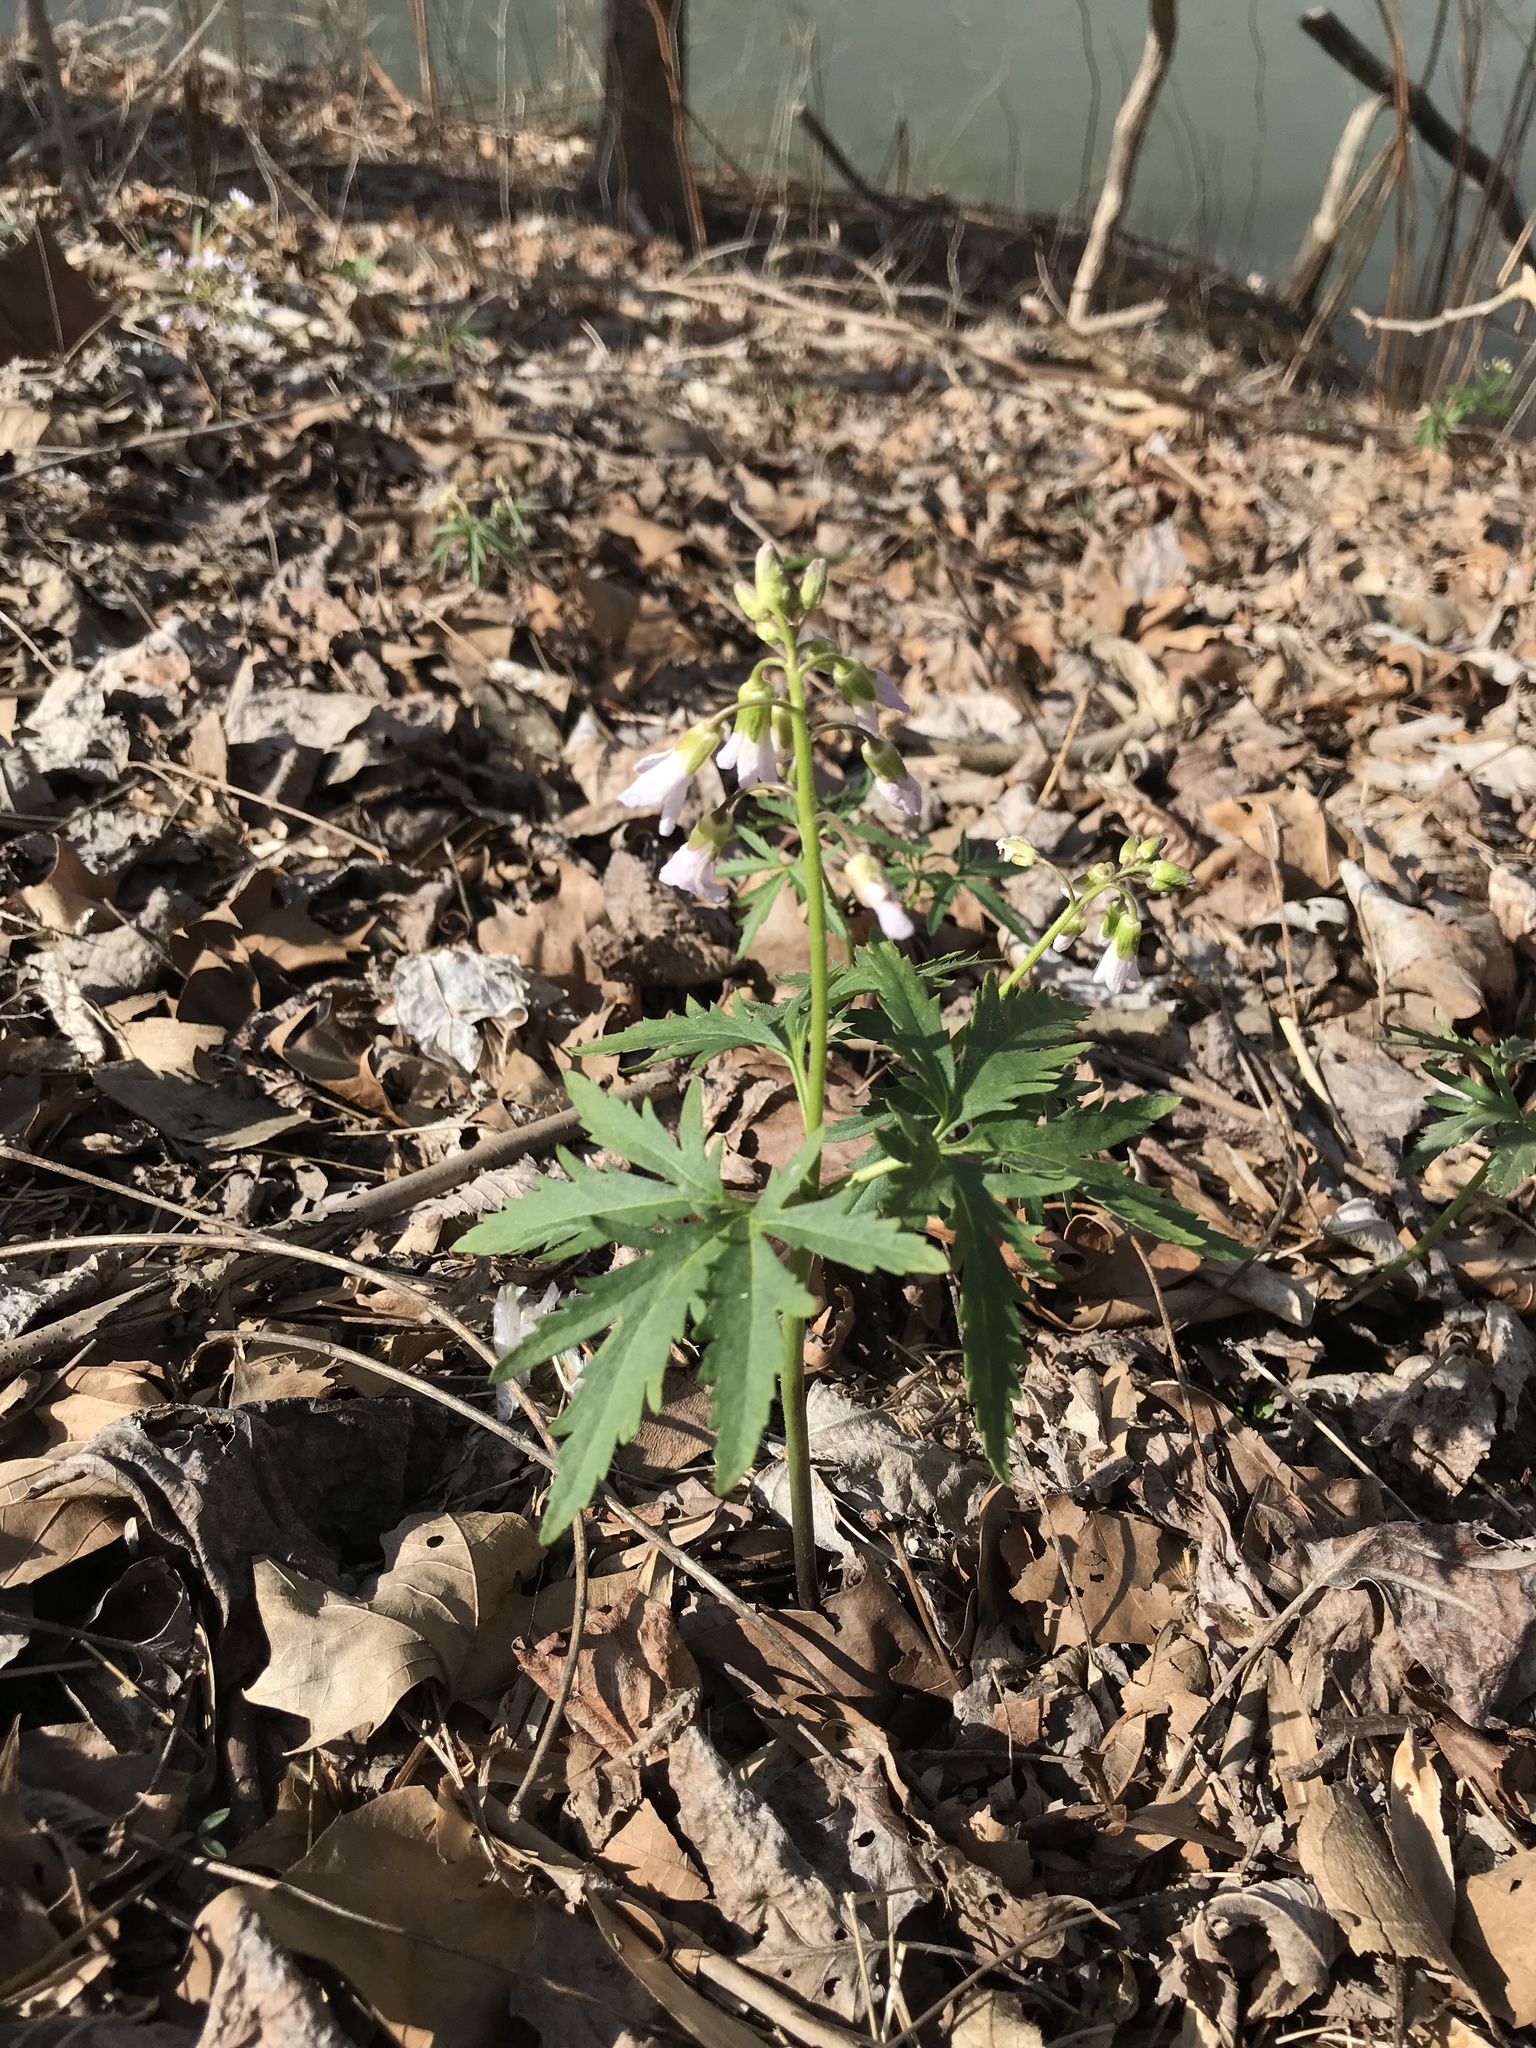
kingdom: Plantae
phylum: Tracheophyta
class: Magnoliopsida
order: Brassicales
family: Brassicaceae
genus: Cardamine
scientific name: Cardamine concatenata
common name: Cut-leaf toothcup
